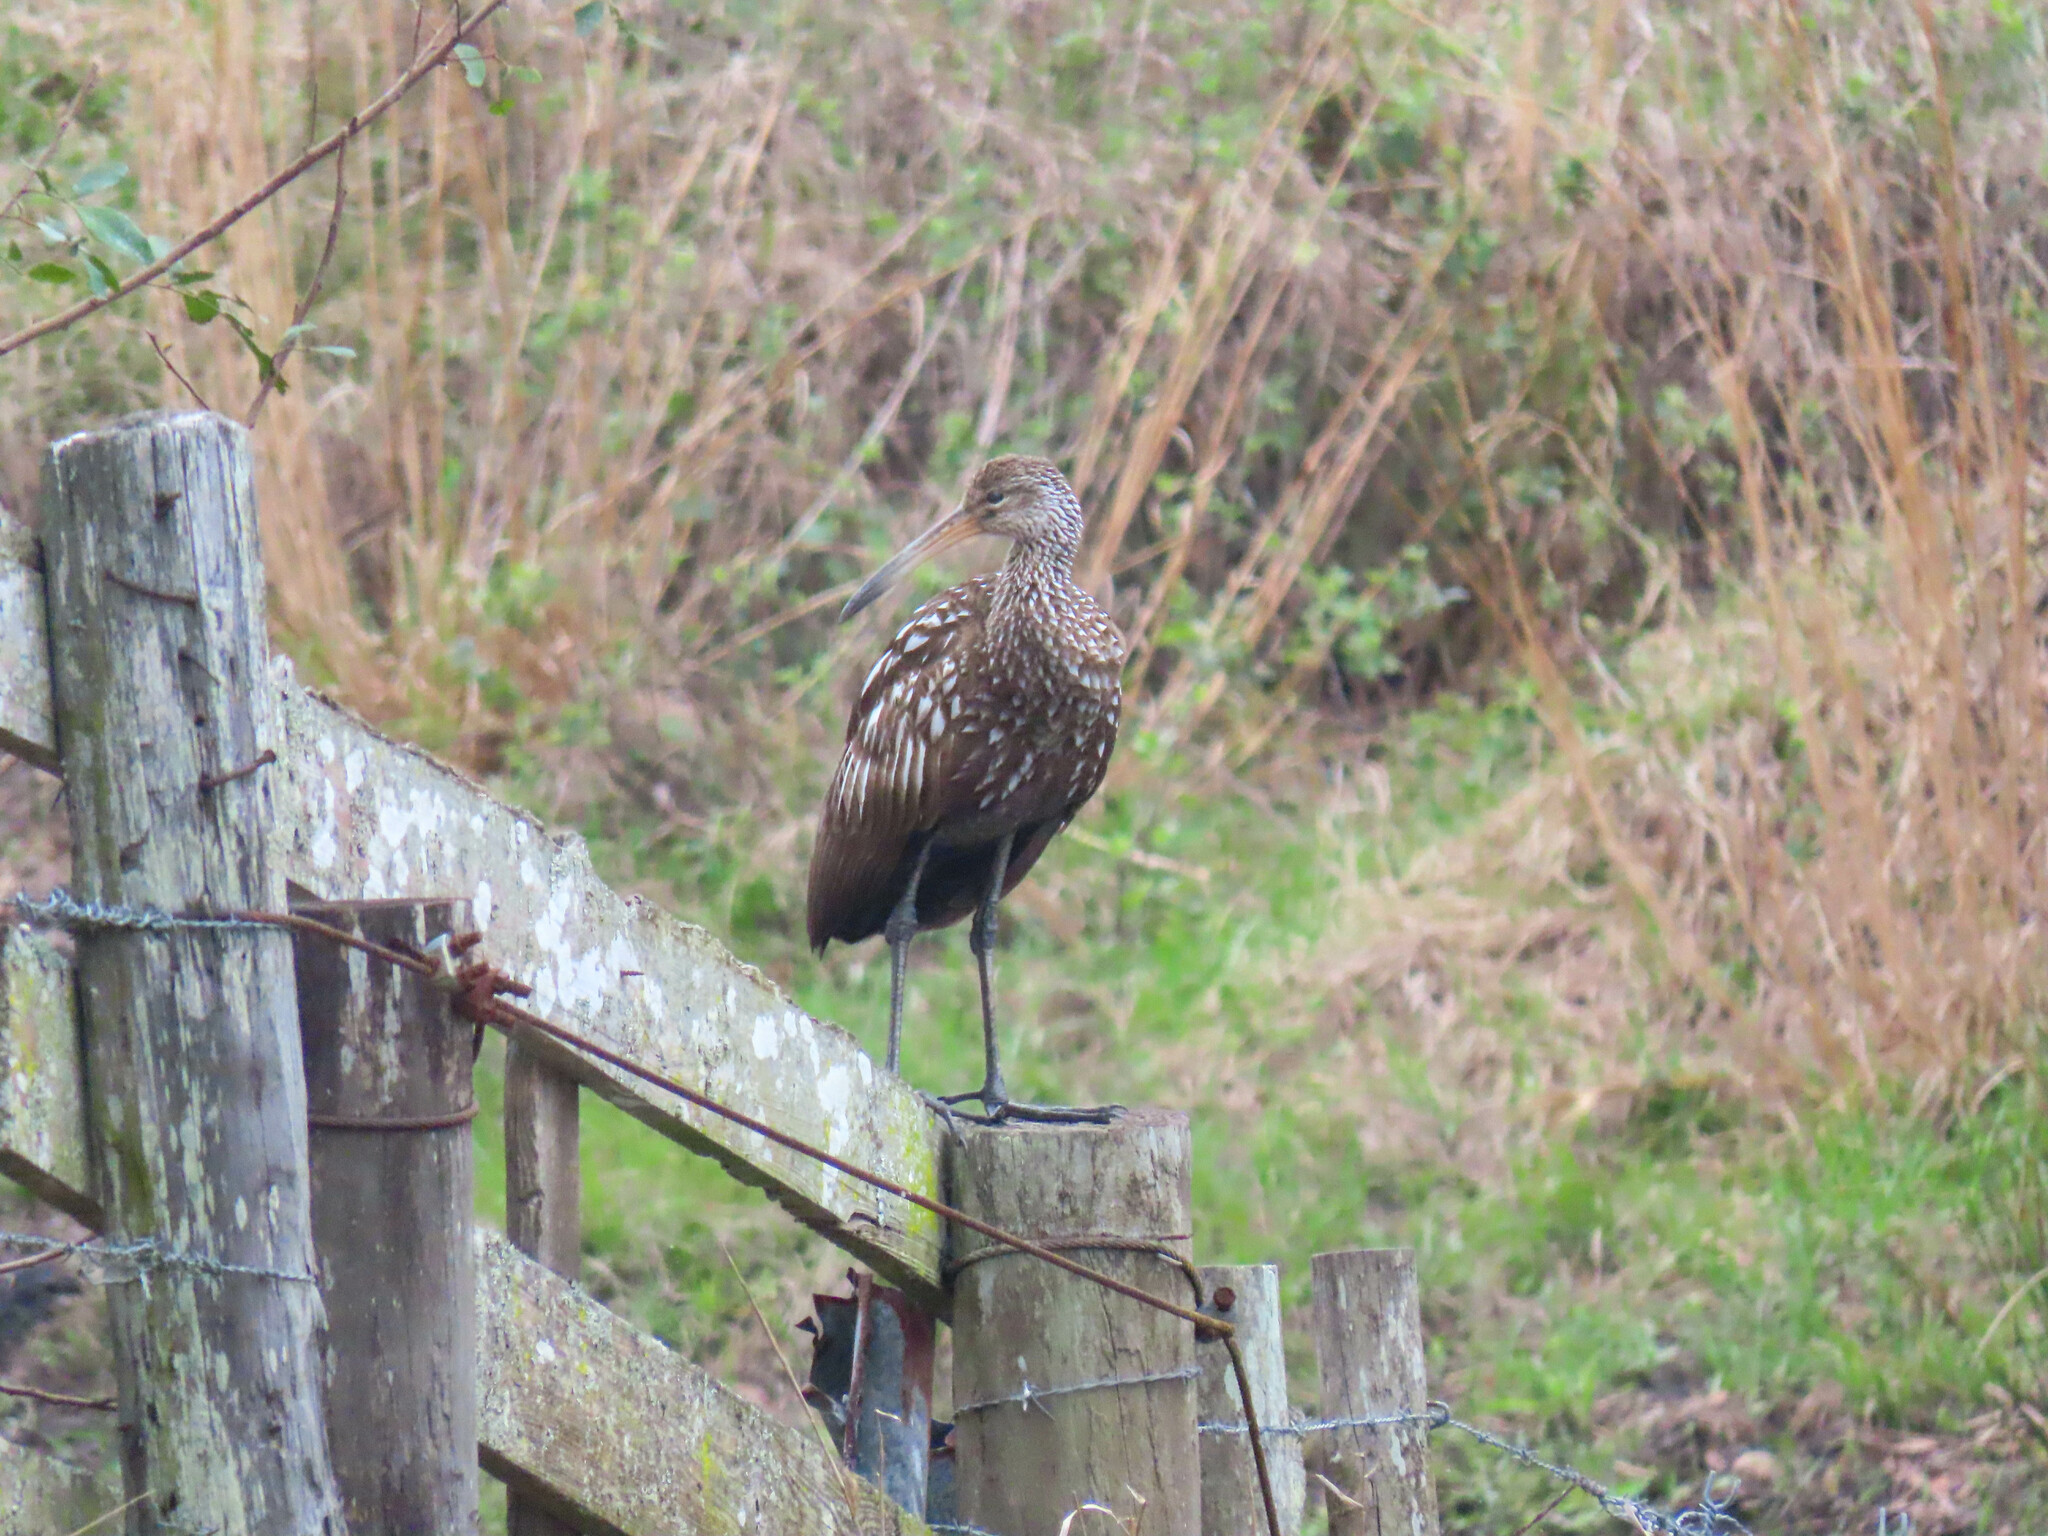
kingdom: Animalia
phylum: Chordata
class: Aves
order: Gruiformes
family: Aramidae
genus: Aramus
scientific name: Aramus guarauna
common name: Limpkin
